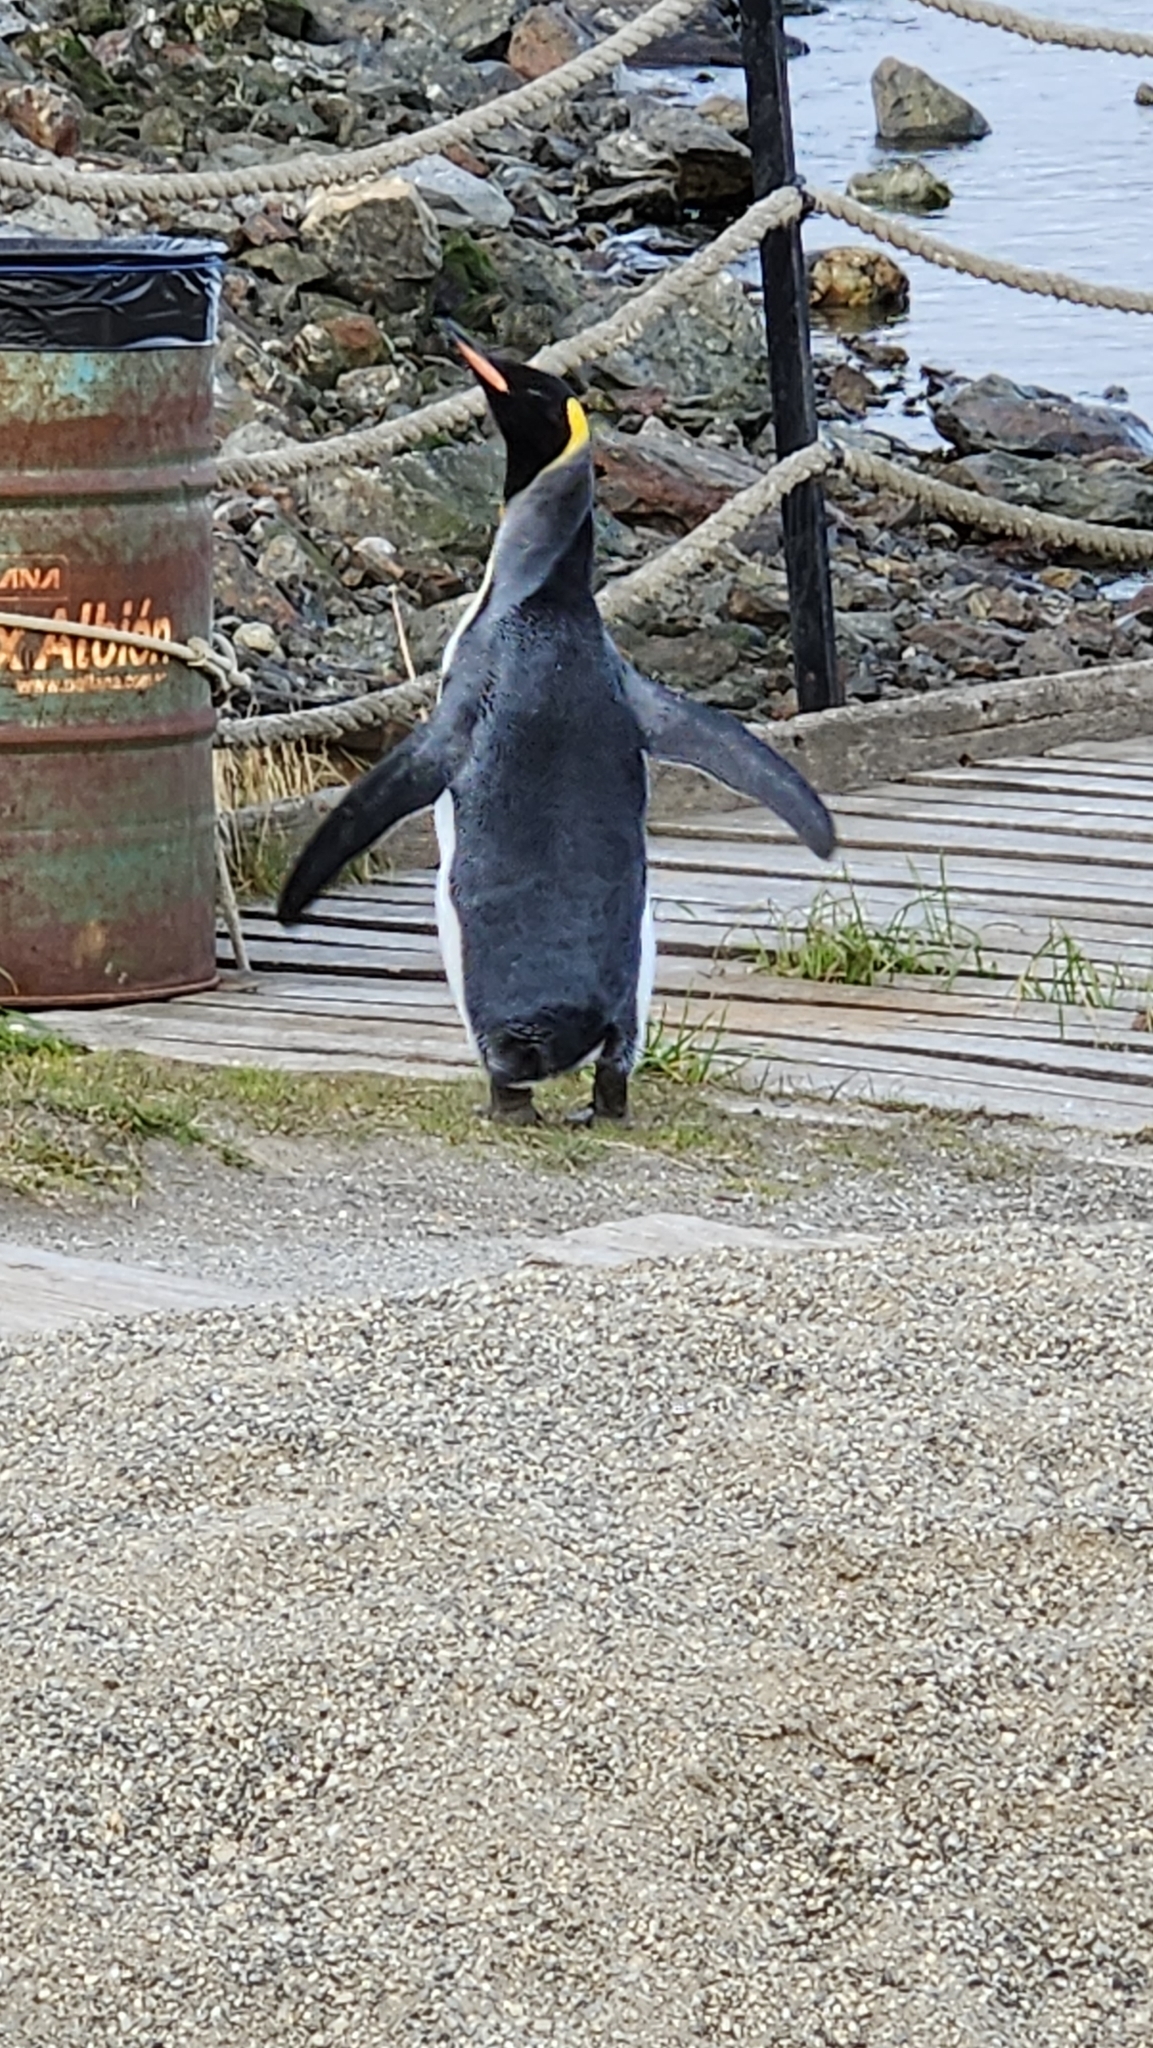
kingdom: Animalia
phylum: Chordata
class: Aves
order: Sphenisciformes
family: Spheniscidae
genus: Aptenodytes
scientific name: Aptenodytes patagonicus
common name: King penguin
